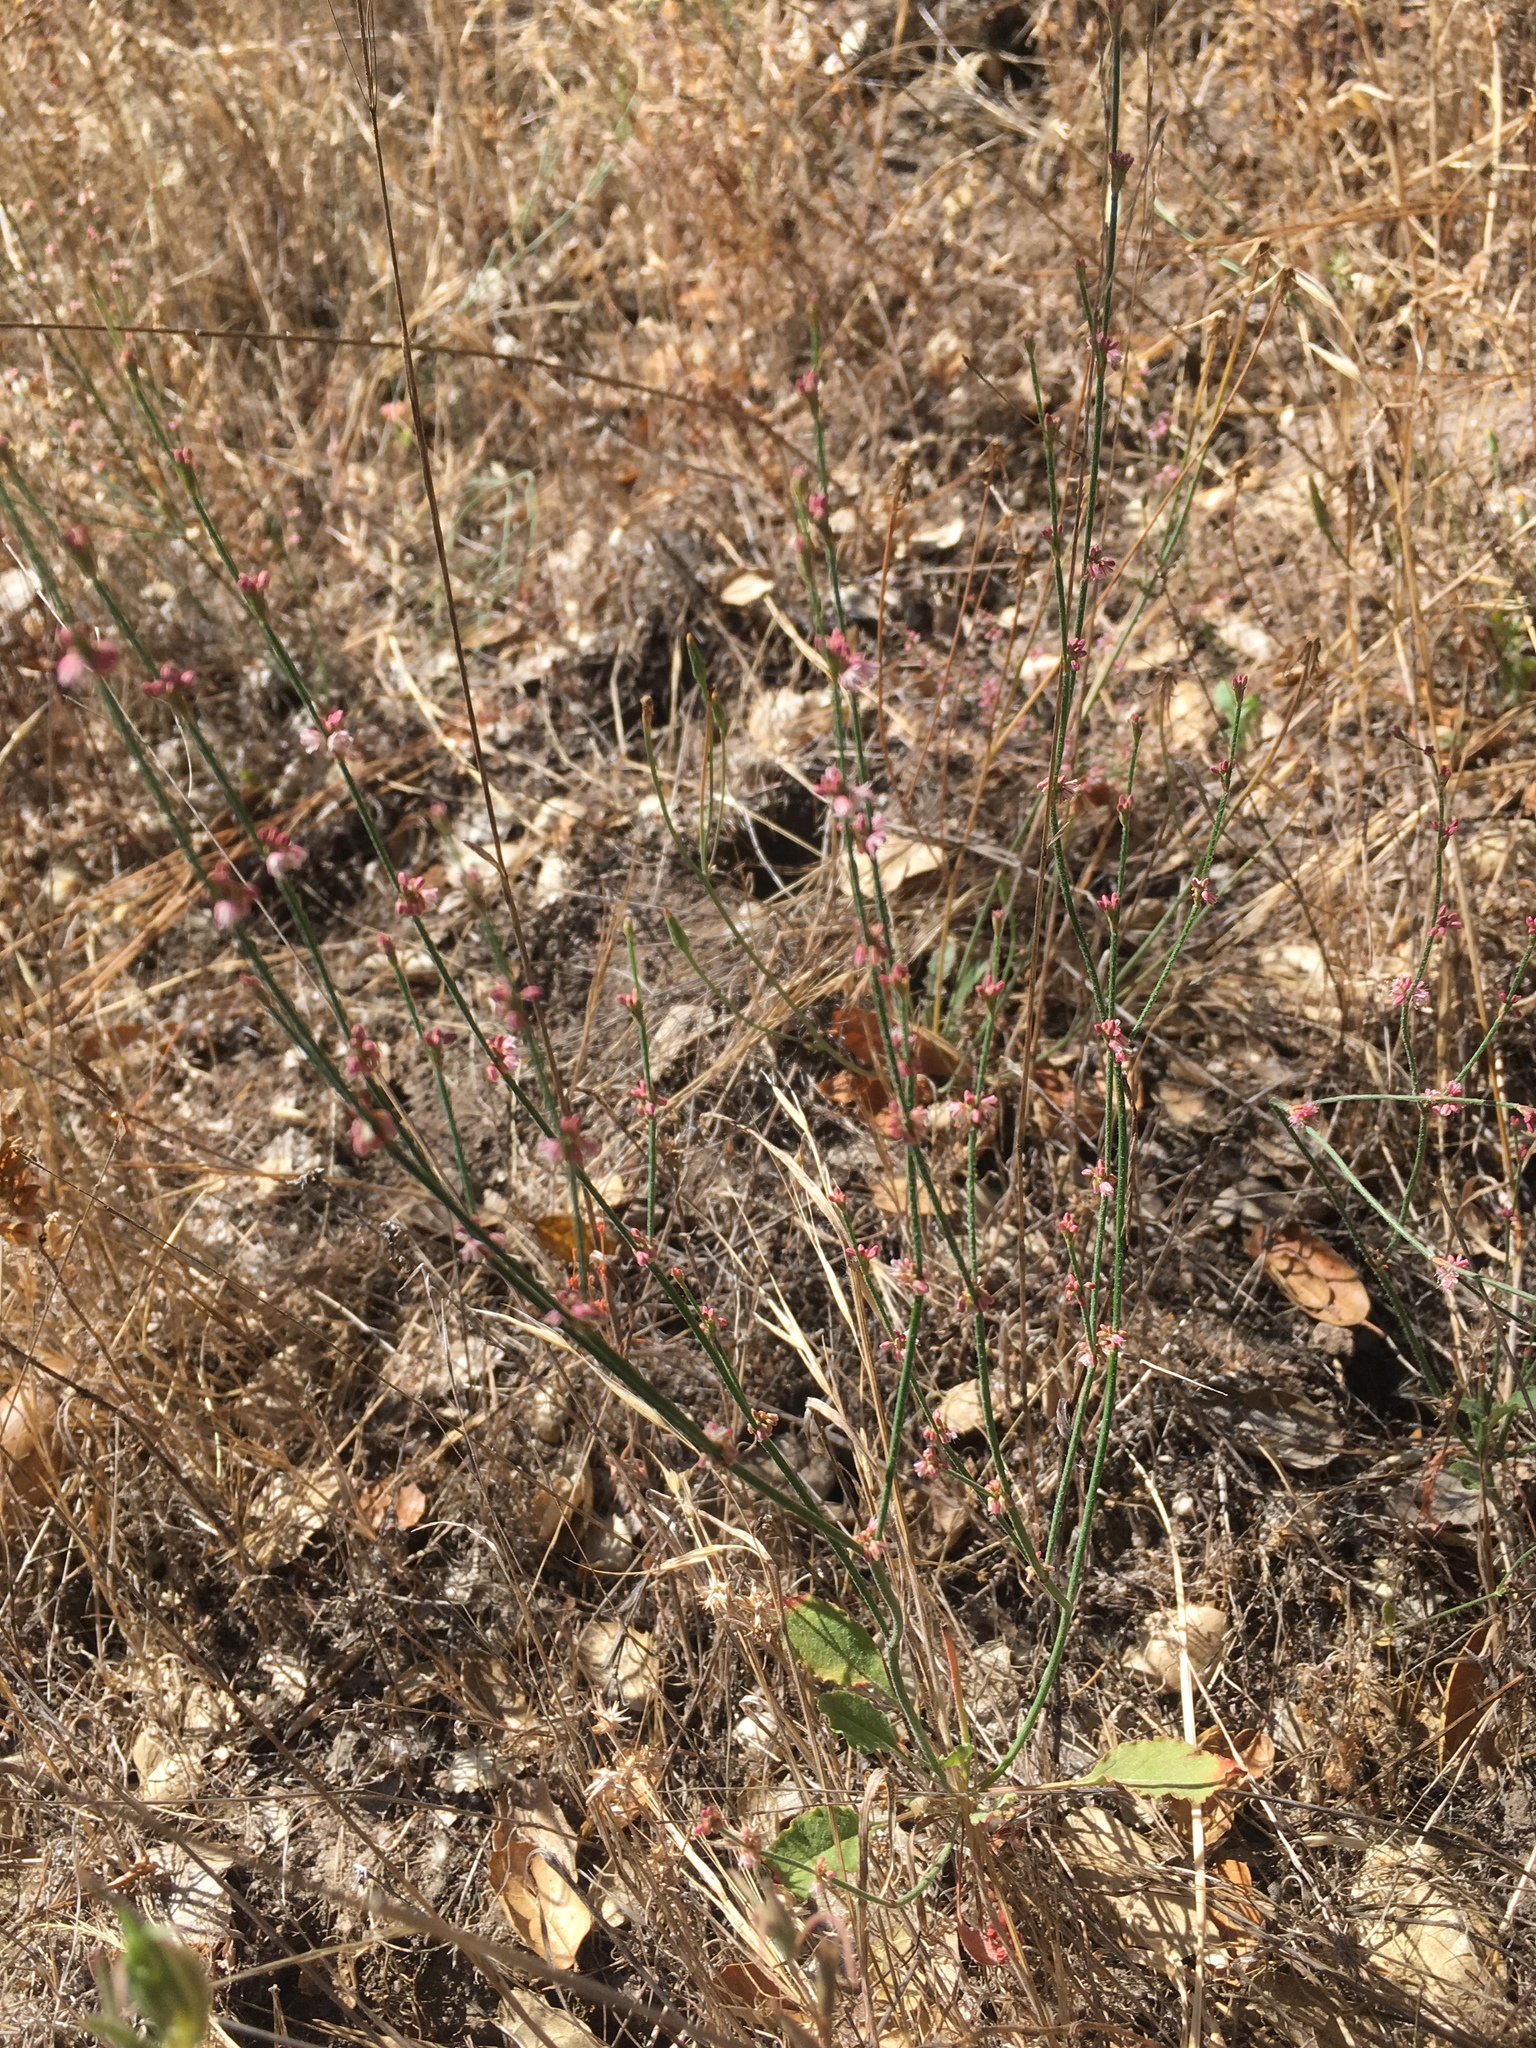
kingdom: Plantae
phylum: Tracheophyta
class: Magnoliopsida
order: Caryophyllales
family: Polygonaceae
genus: Eriogonum
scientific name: Eriogonum gracile
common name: Slender woolly buckwheat
